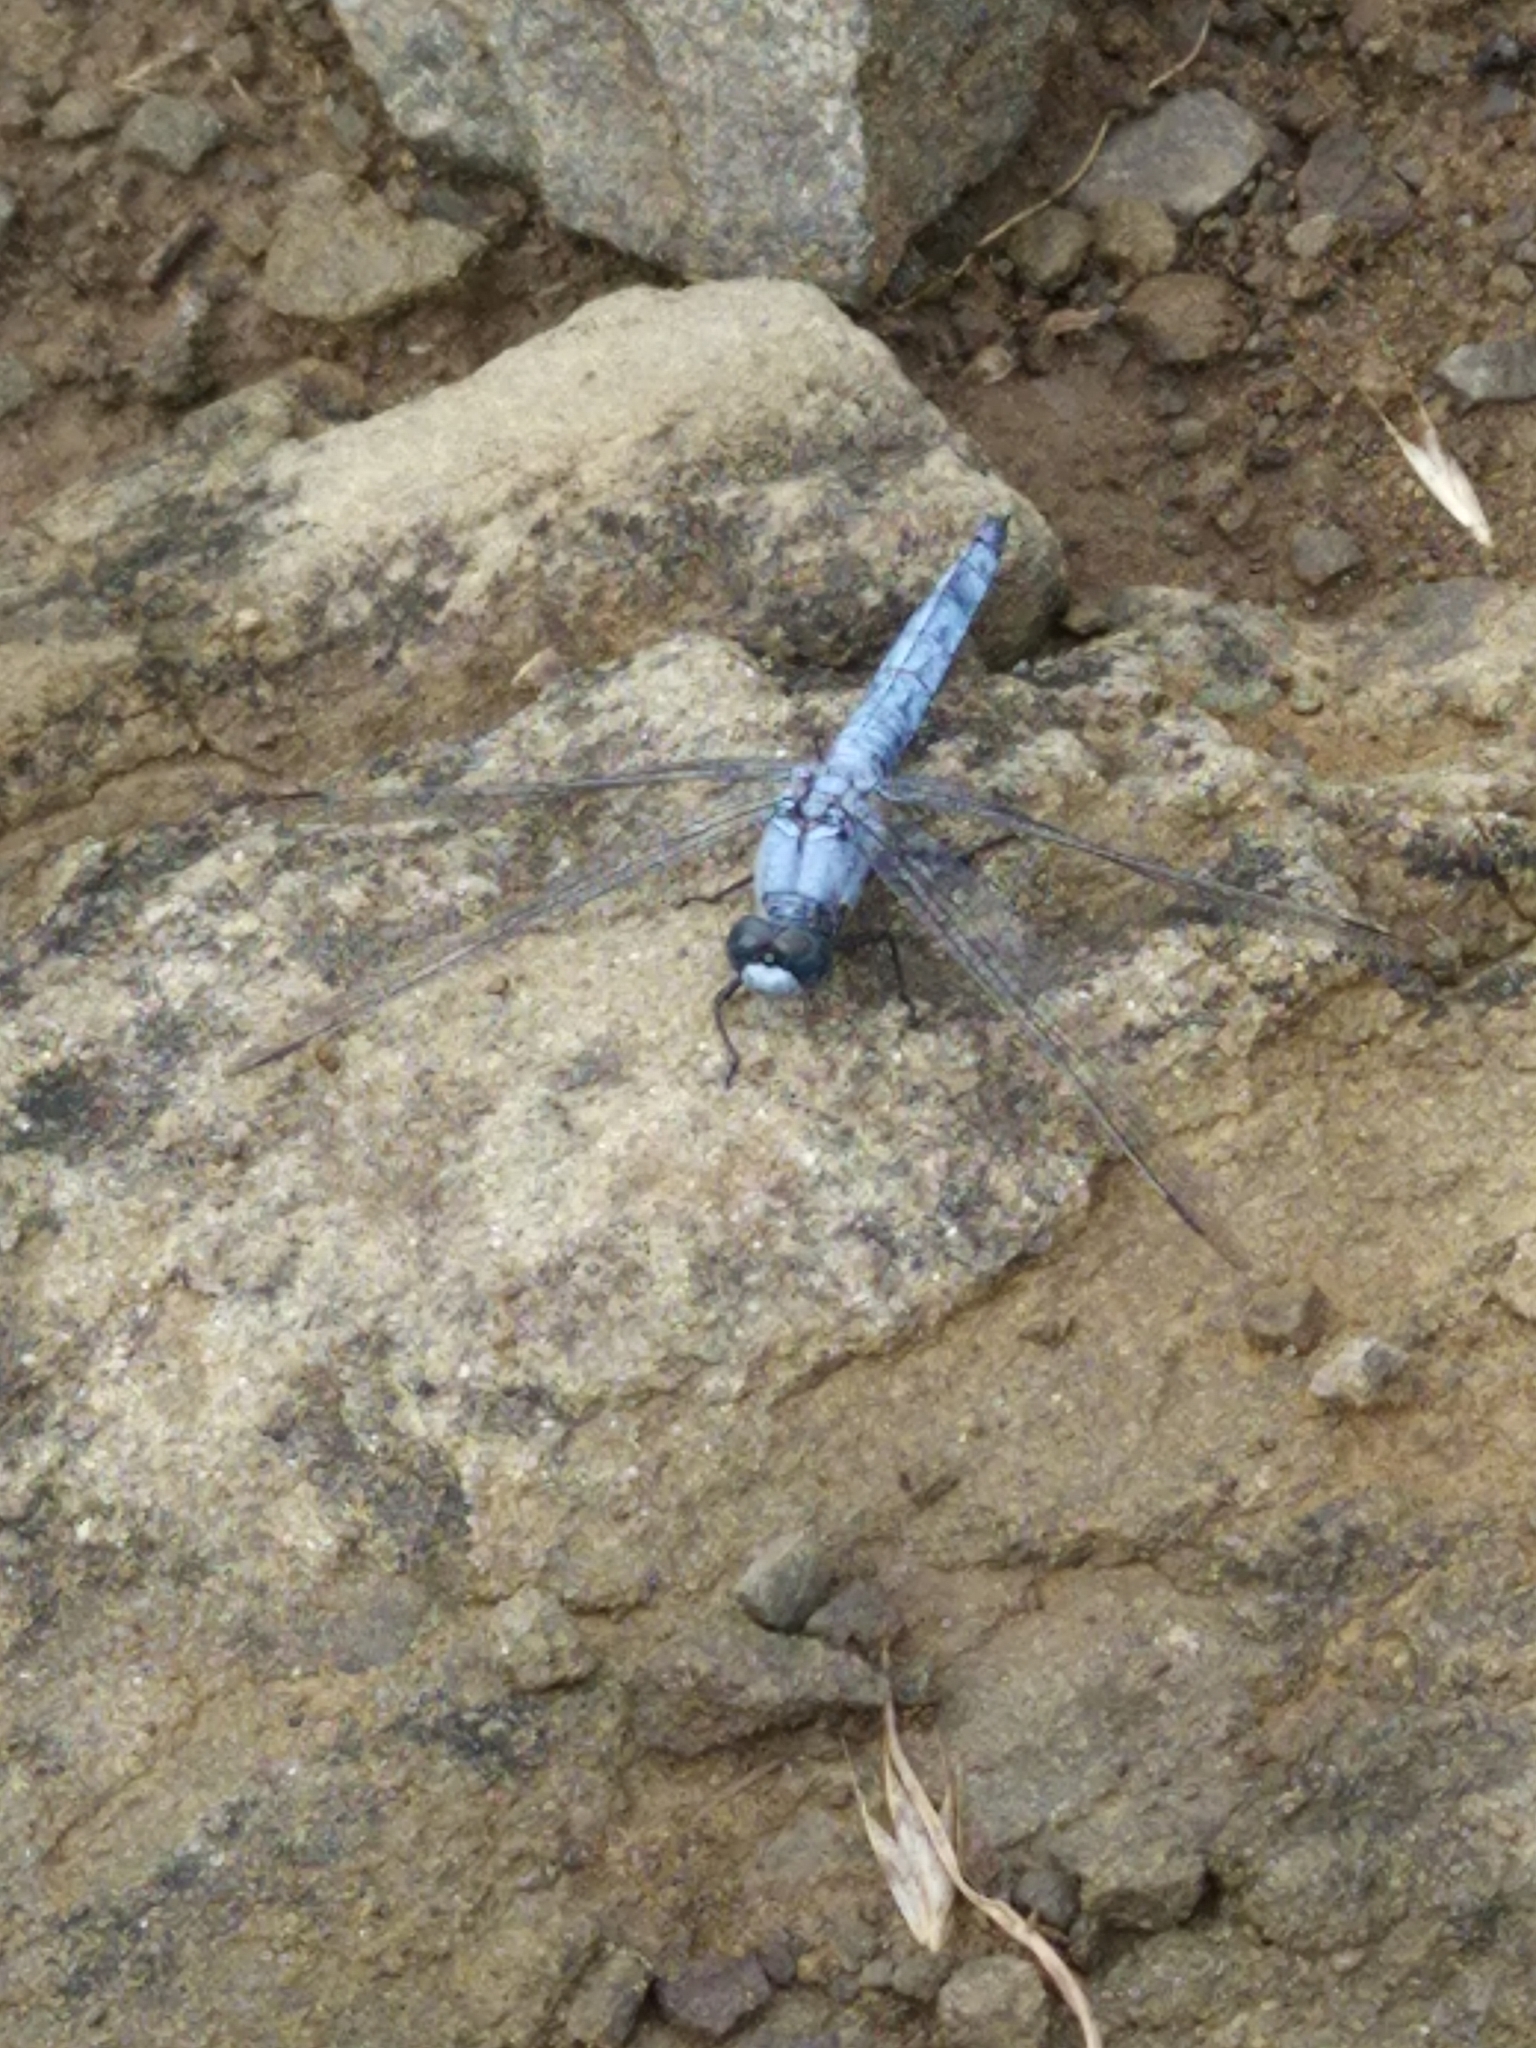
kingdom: Animalia
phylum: Arthropoda
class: Insecta
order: Odonata
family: Libellulidae
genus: Orthetrum
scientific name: Orthetrum brunneum
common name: Southern skimmer
